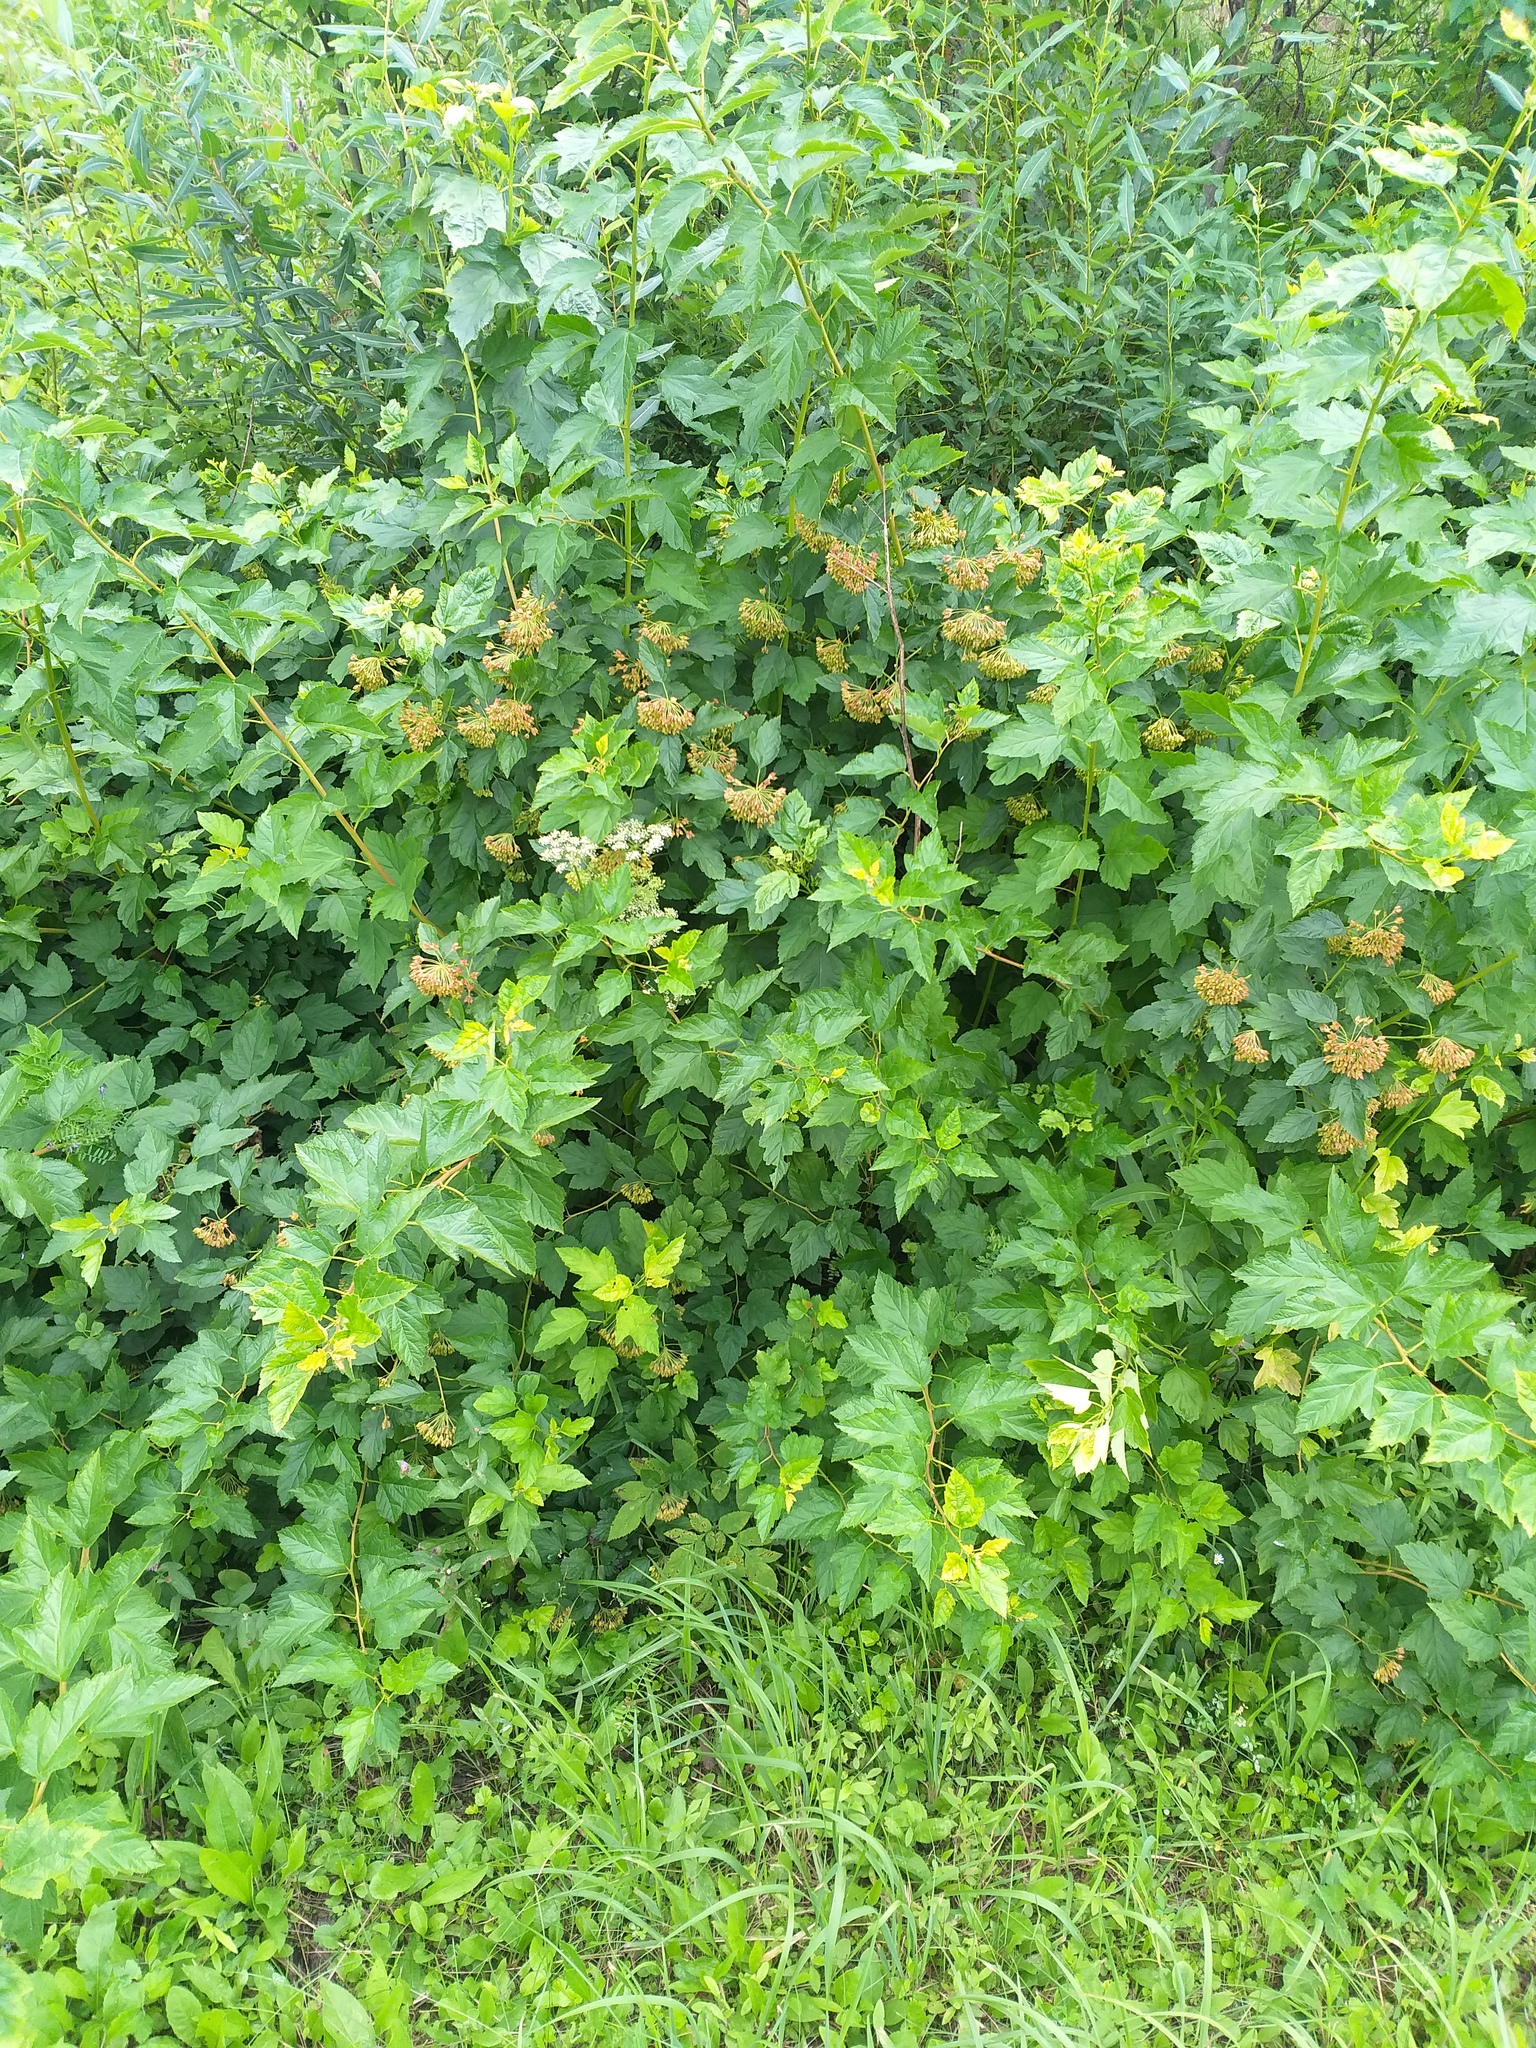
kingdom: Plantae
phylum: Tracheophyta
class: Magnoliopsida
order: Rosales
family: Rosaceae
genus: Physocarpus
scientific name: Physocarpus opulifolius
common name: Ninebark
